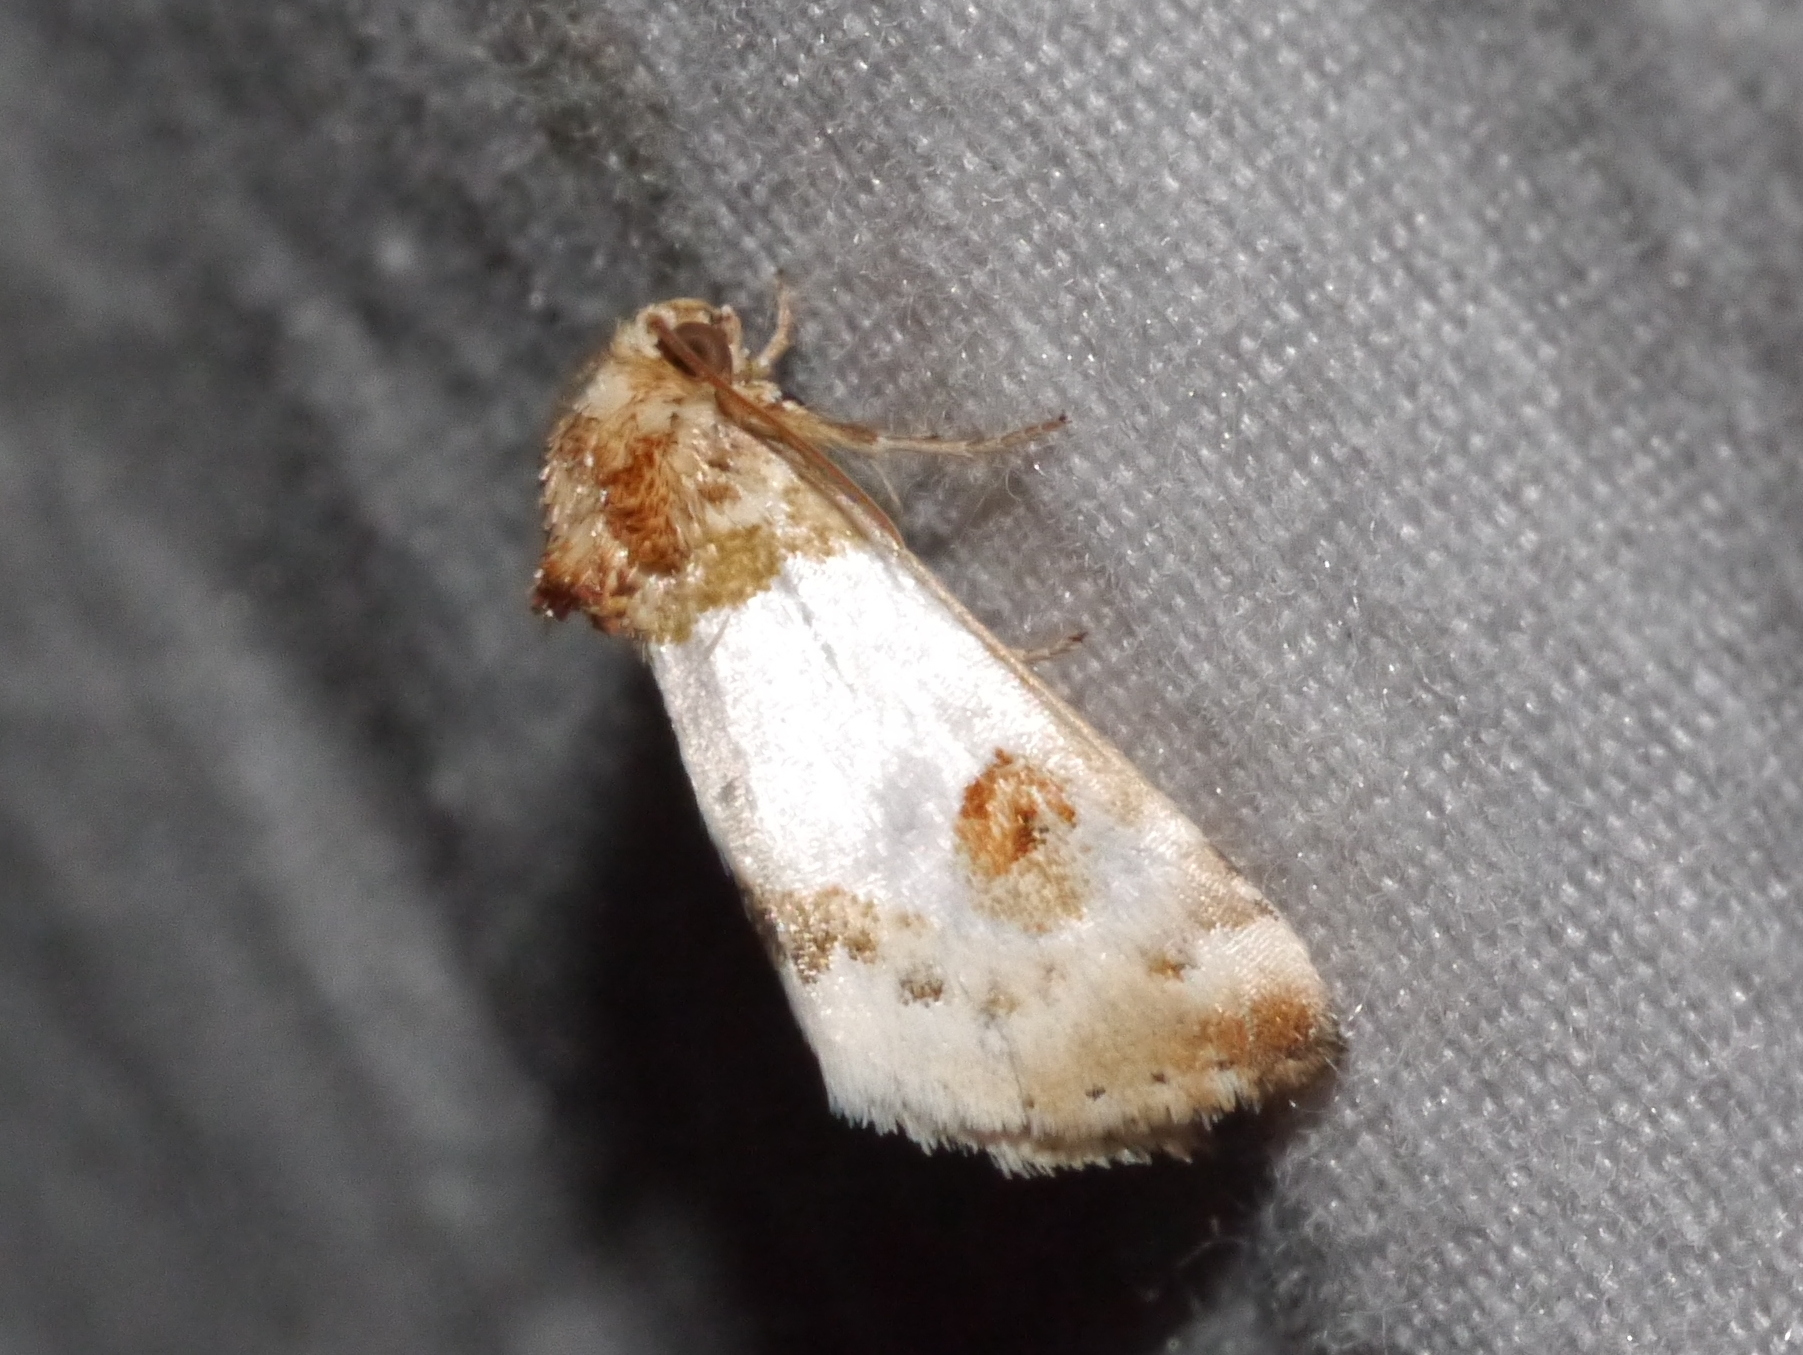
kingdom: Animalia
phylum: Arthropoda
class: Insecta
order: Lepidoptera
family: Noctuidae
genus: Schinia
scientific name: Schinia oculata
